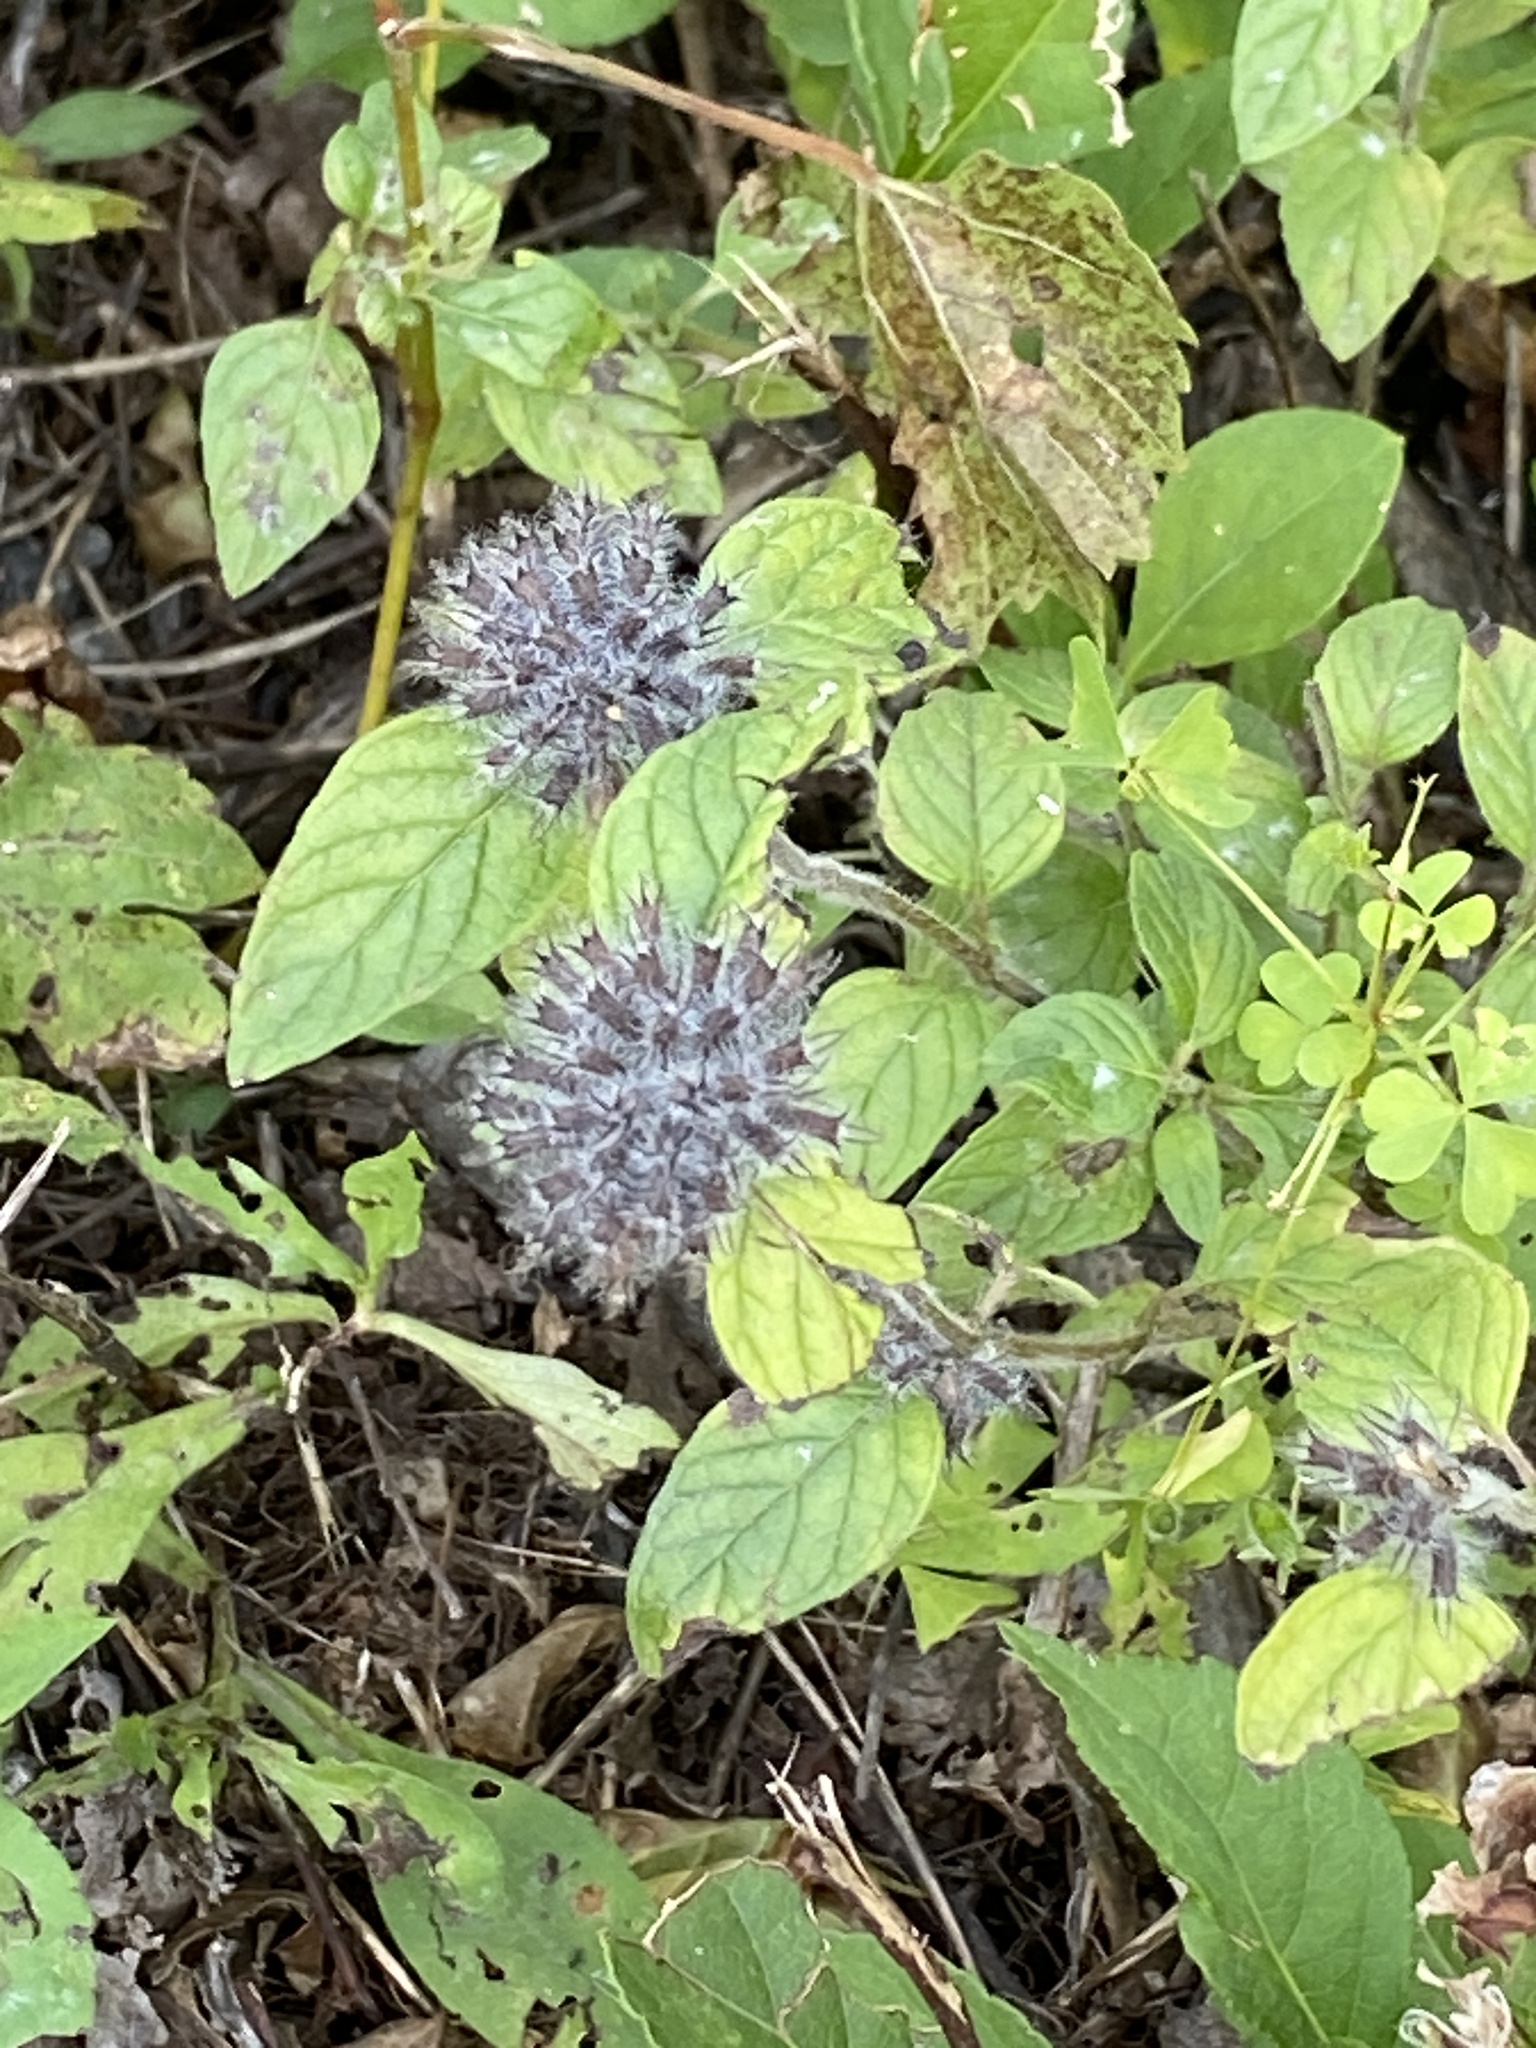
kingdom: Plantae
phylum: Tracheophyta
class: Magnoliopsida
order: Lamiales
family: Lamiaceae
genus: Clinopodium
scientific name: Clinopodium vulgare
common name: Wild basil
